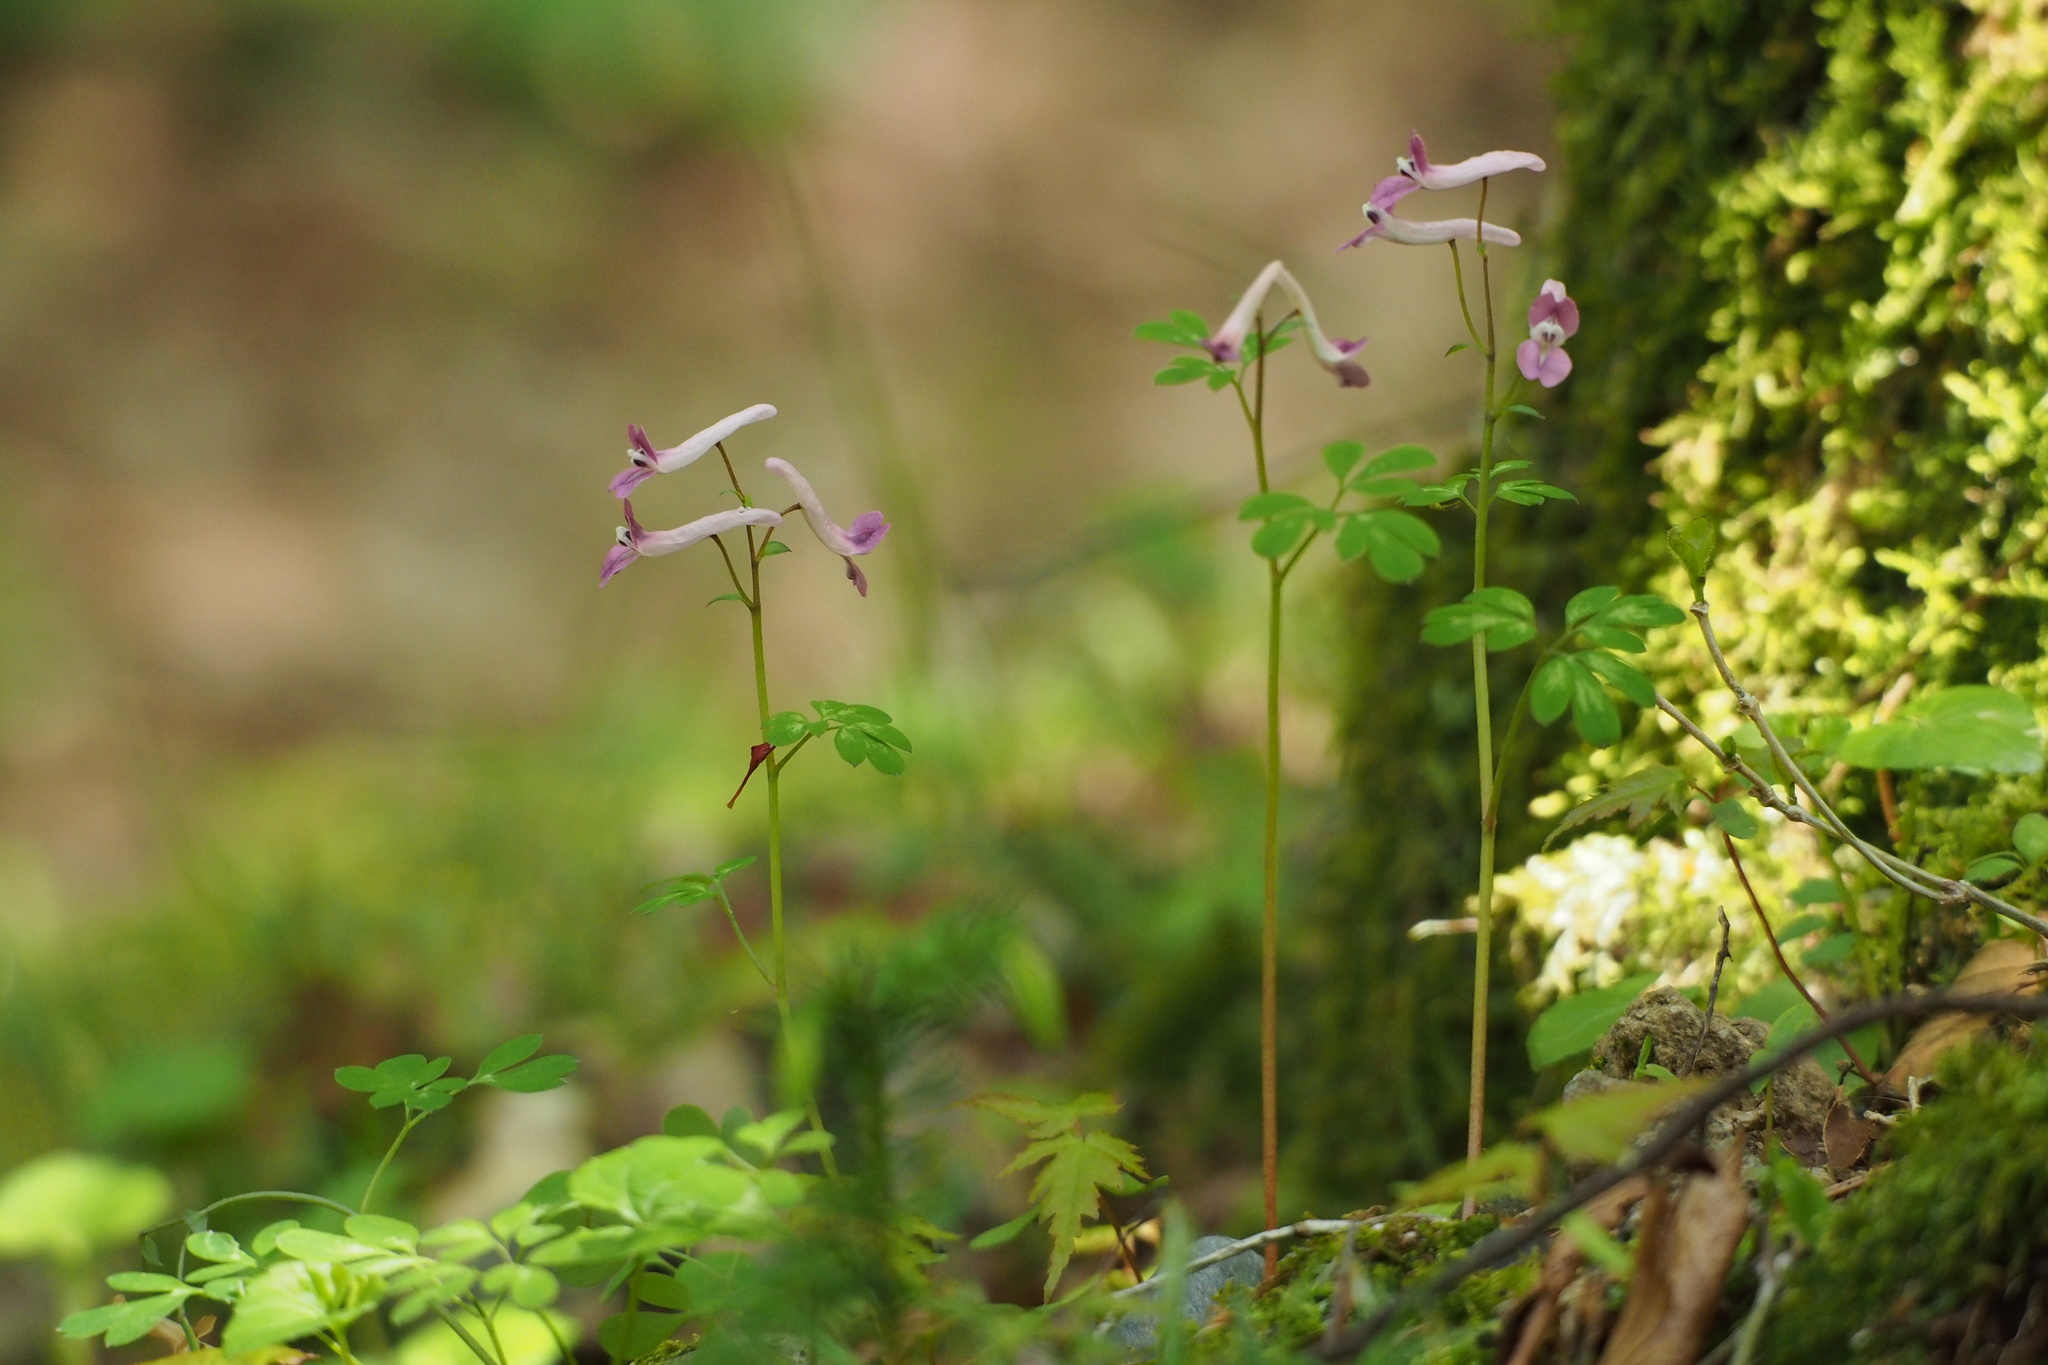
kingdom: Plantae
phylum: Tracheophyta
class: Magnoliopsida
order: Ranunculales
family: Papaveraceae
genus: Corydalis
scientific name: Corydalis decumbens
